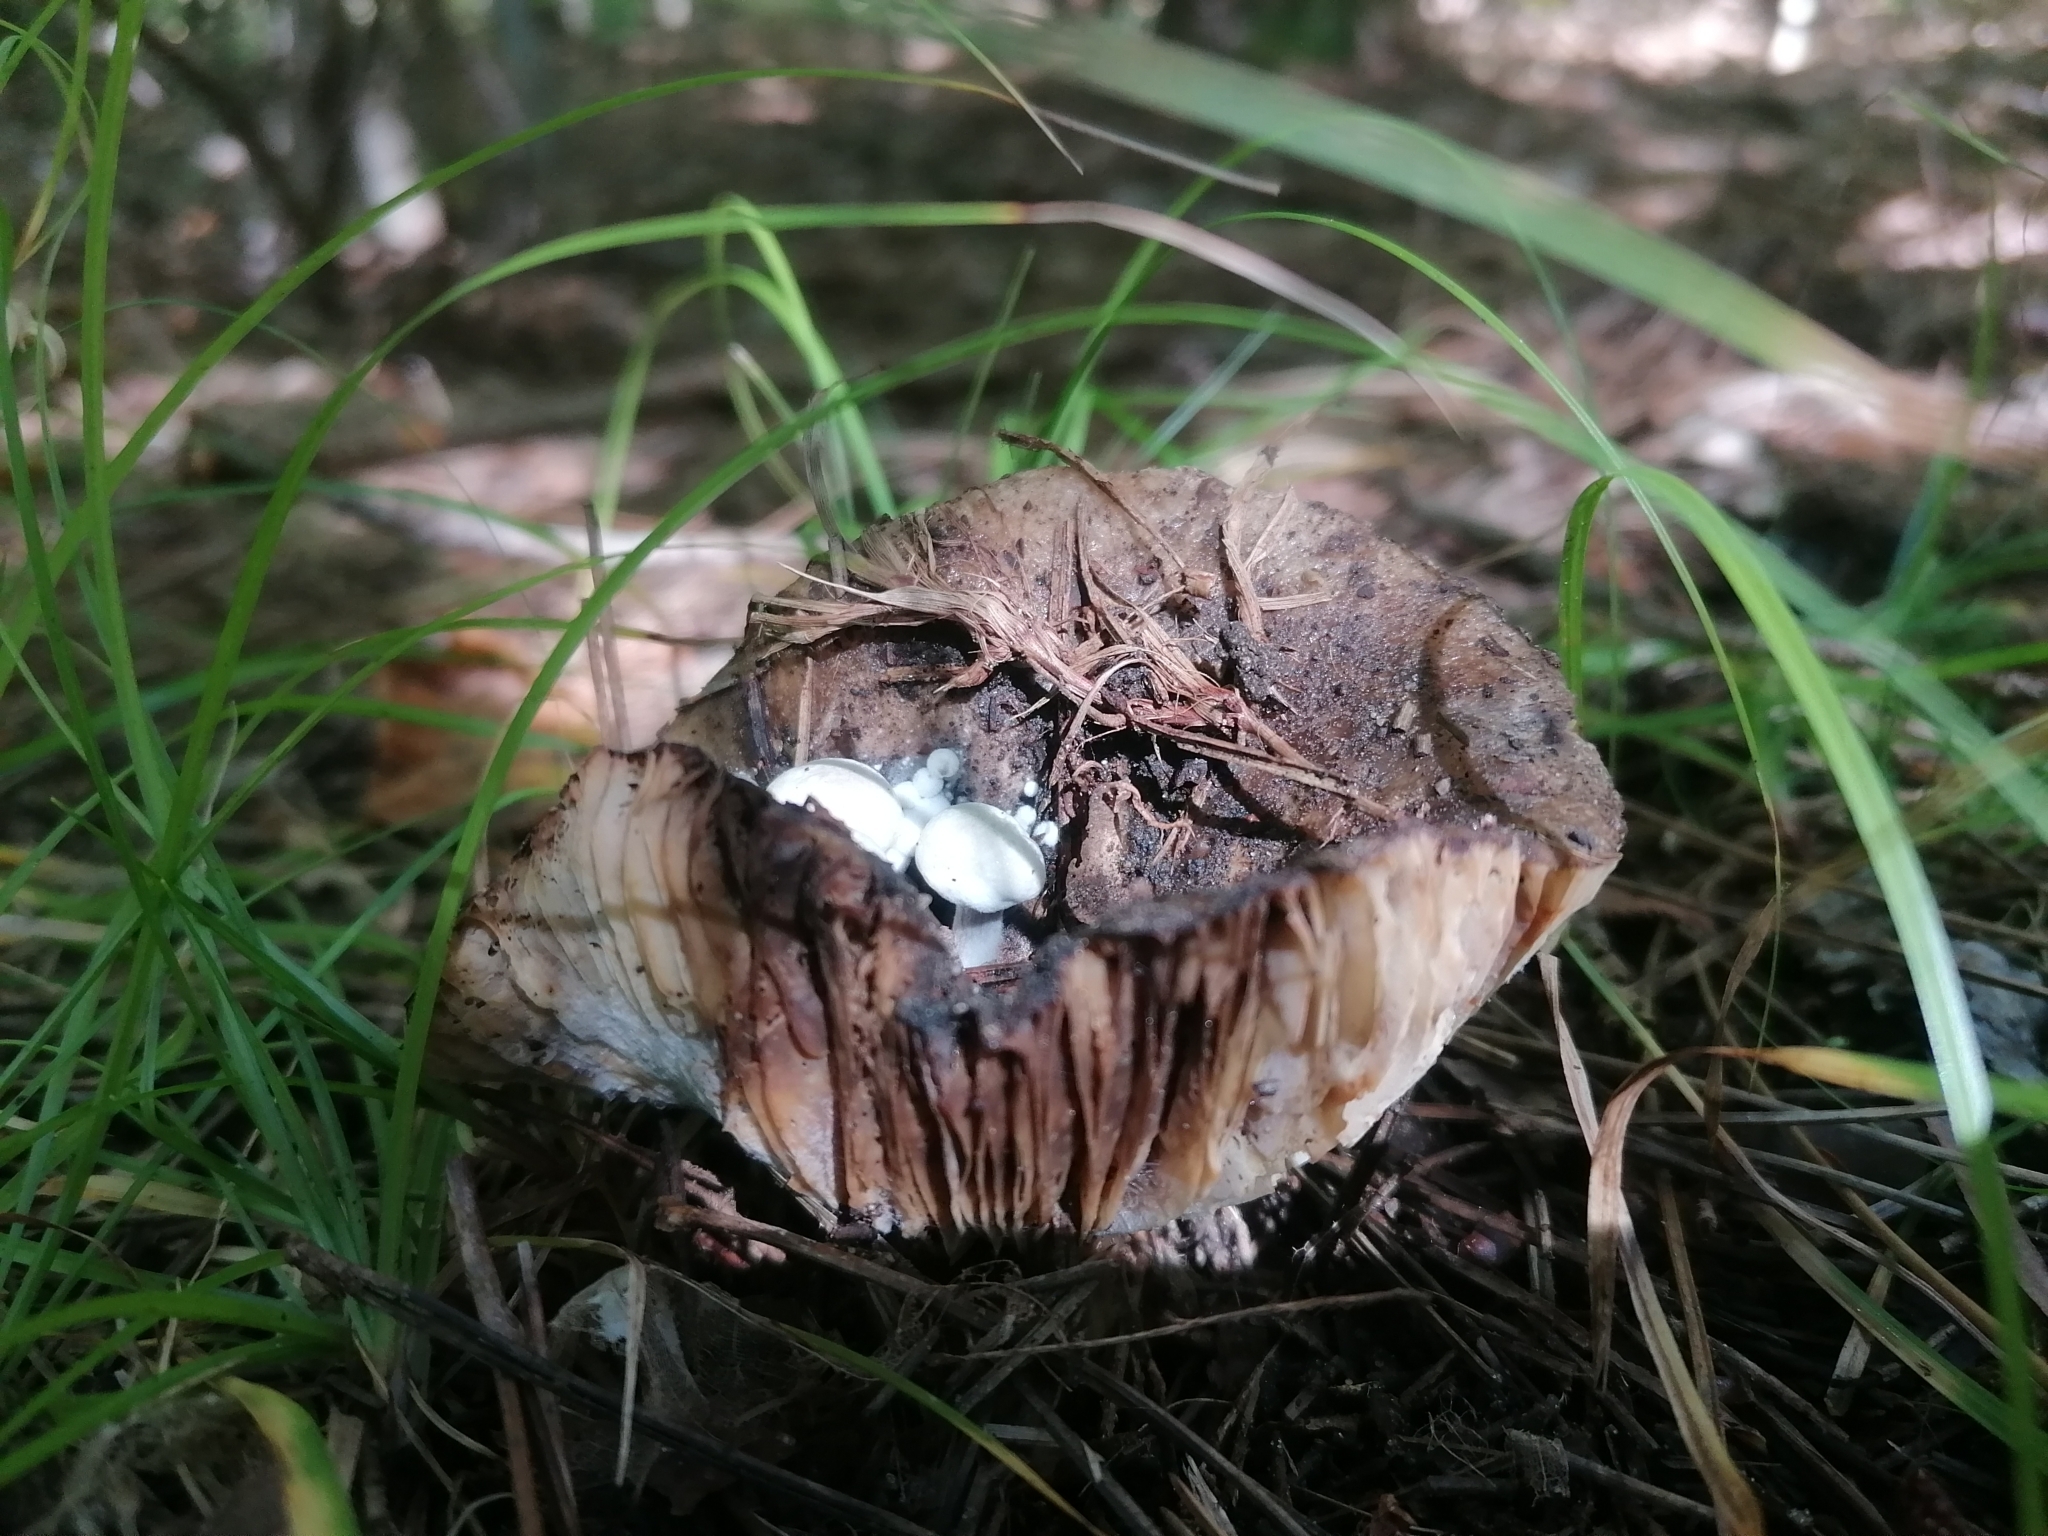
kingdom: Fungi
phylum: Basidiomycota
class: Agaricomycetes
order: Agaricales
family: Lyophyllaceae
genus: Asterophora
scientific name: Asterophora lycoperdoides
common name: Pick-a-back toadstool
